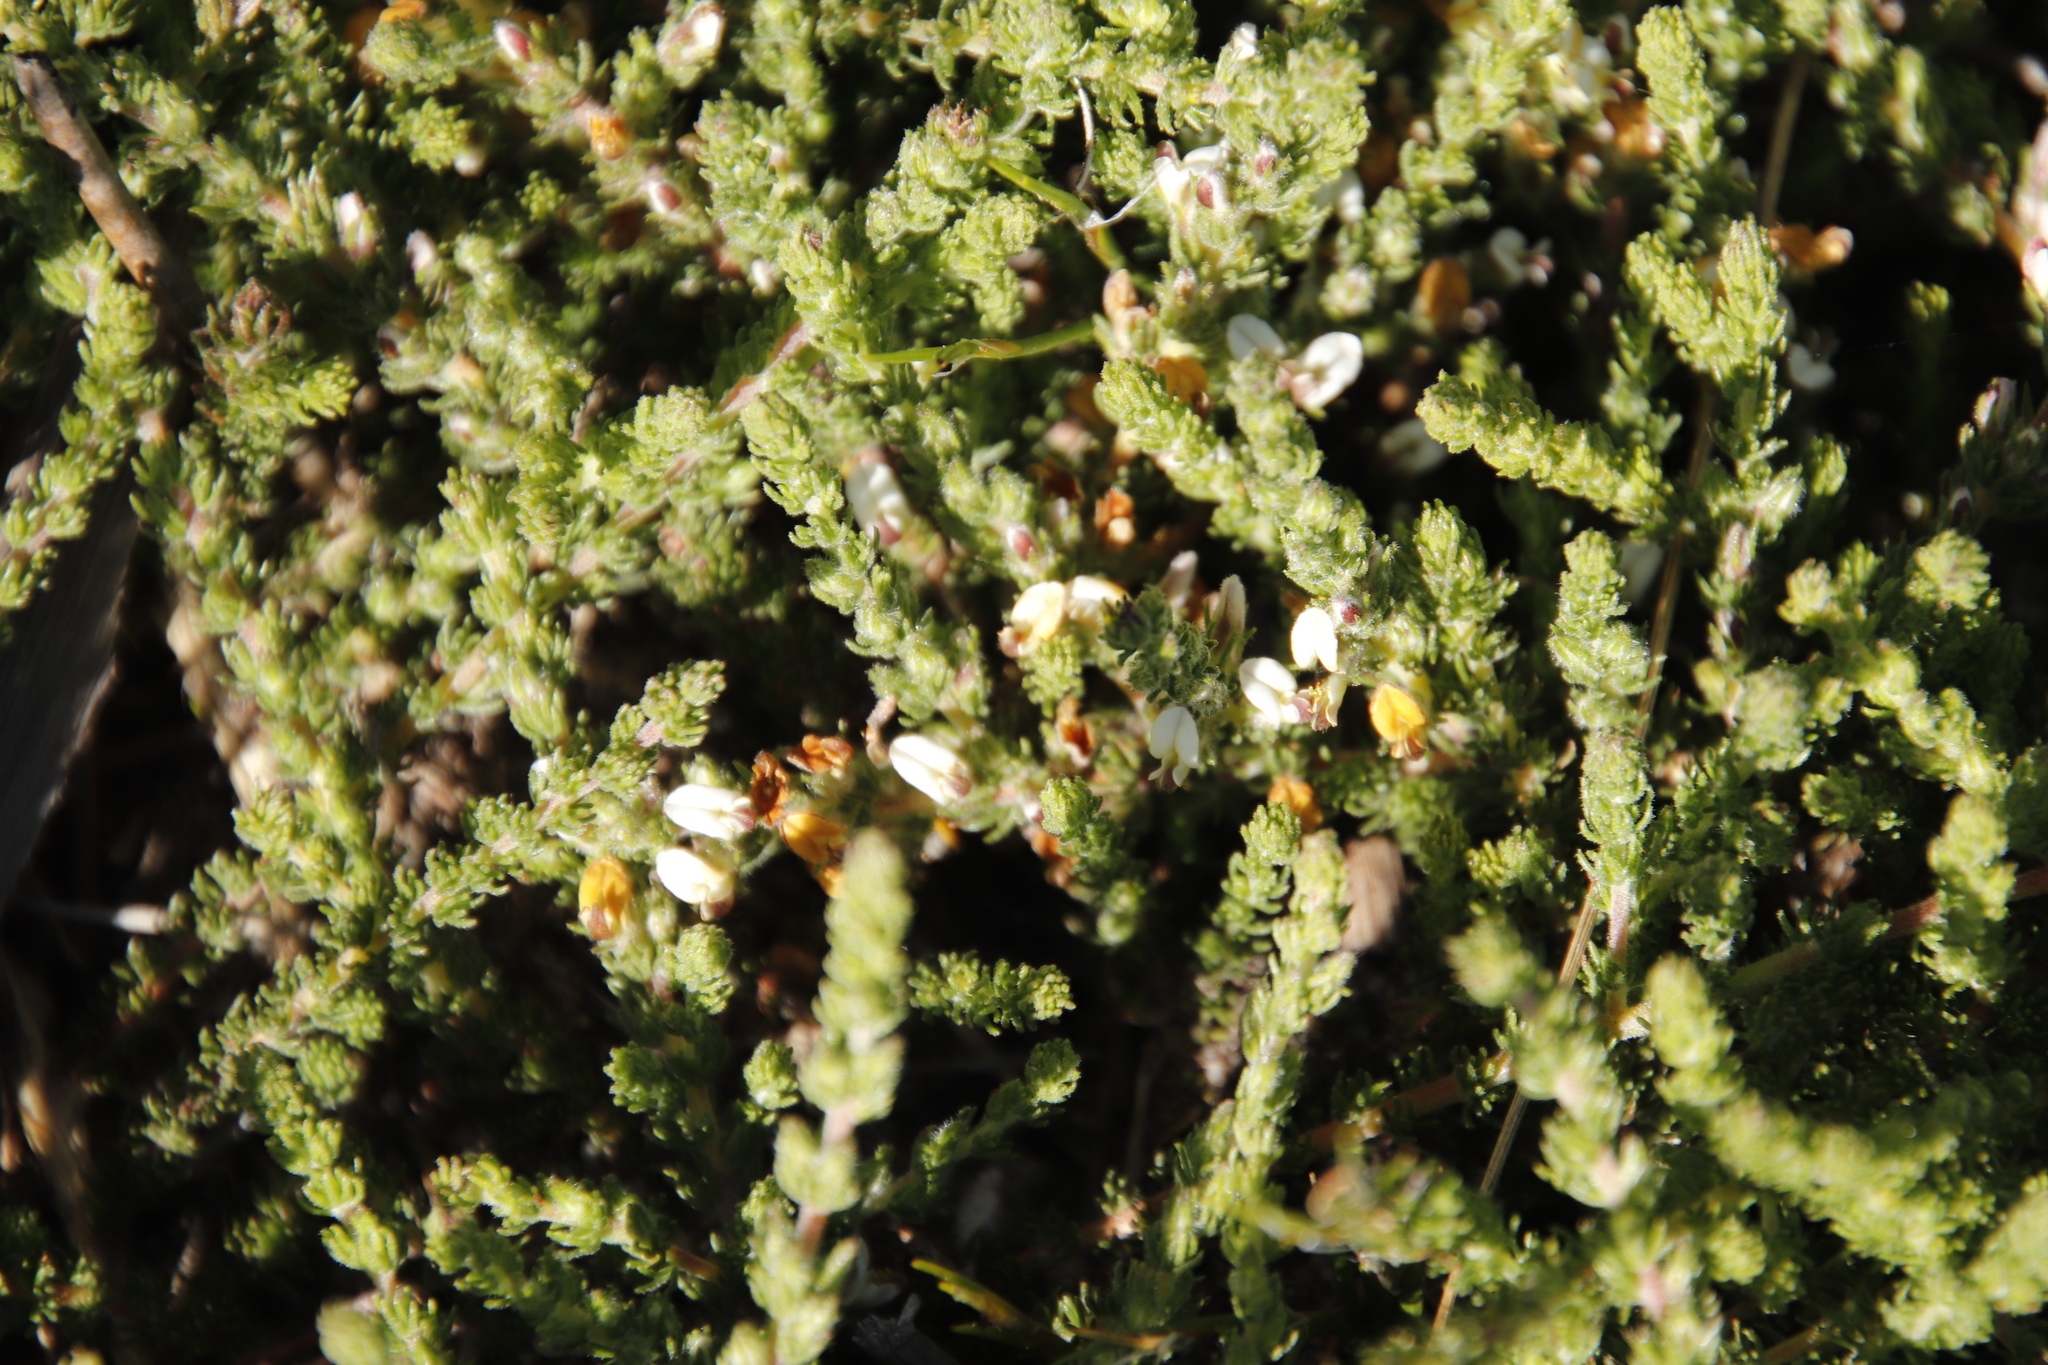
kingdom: Plantae
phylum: Tracheophyta
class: Magnoliopsida
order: Fabales
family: Fabaceae
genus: Aspalathus
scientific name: Aspalathus hispida
